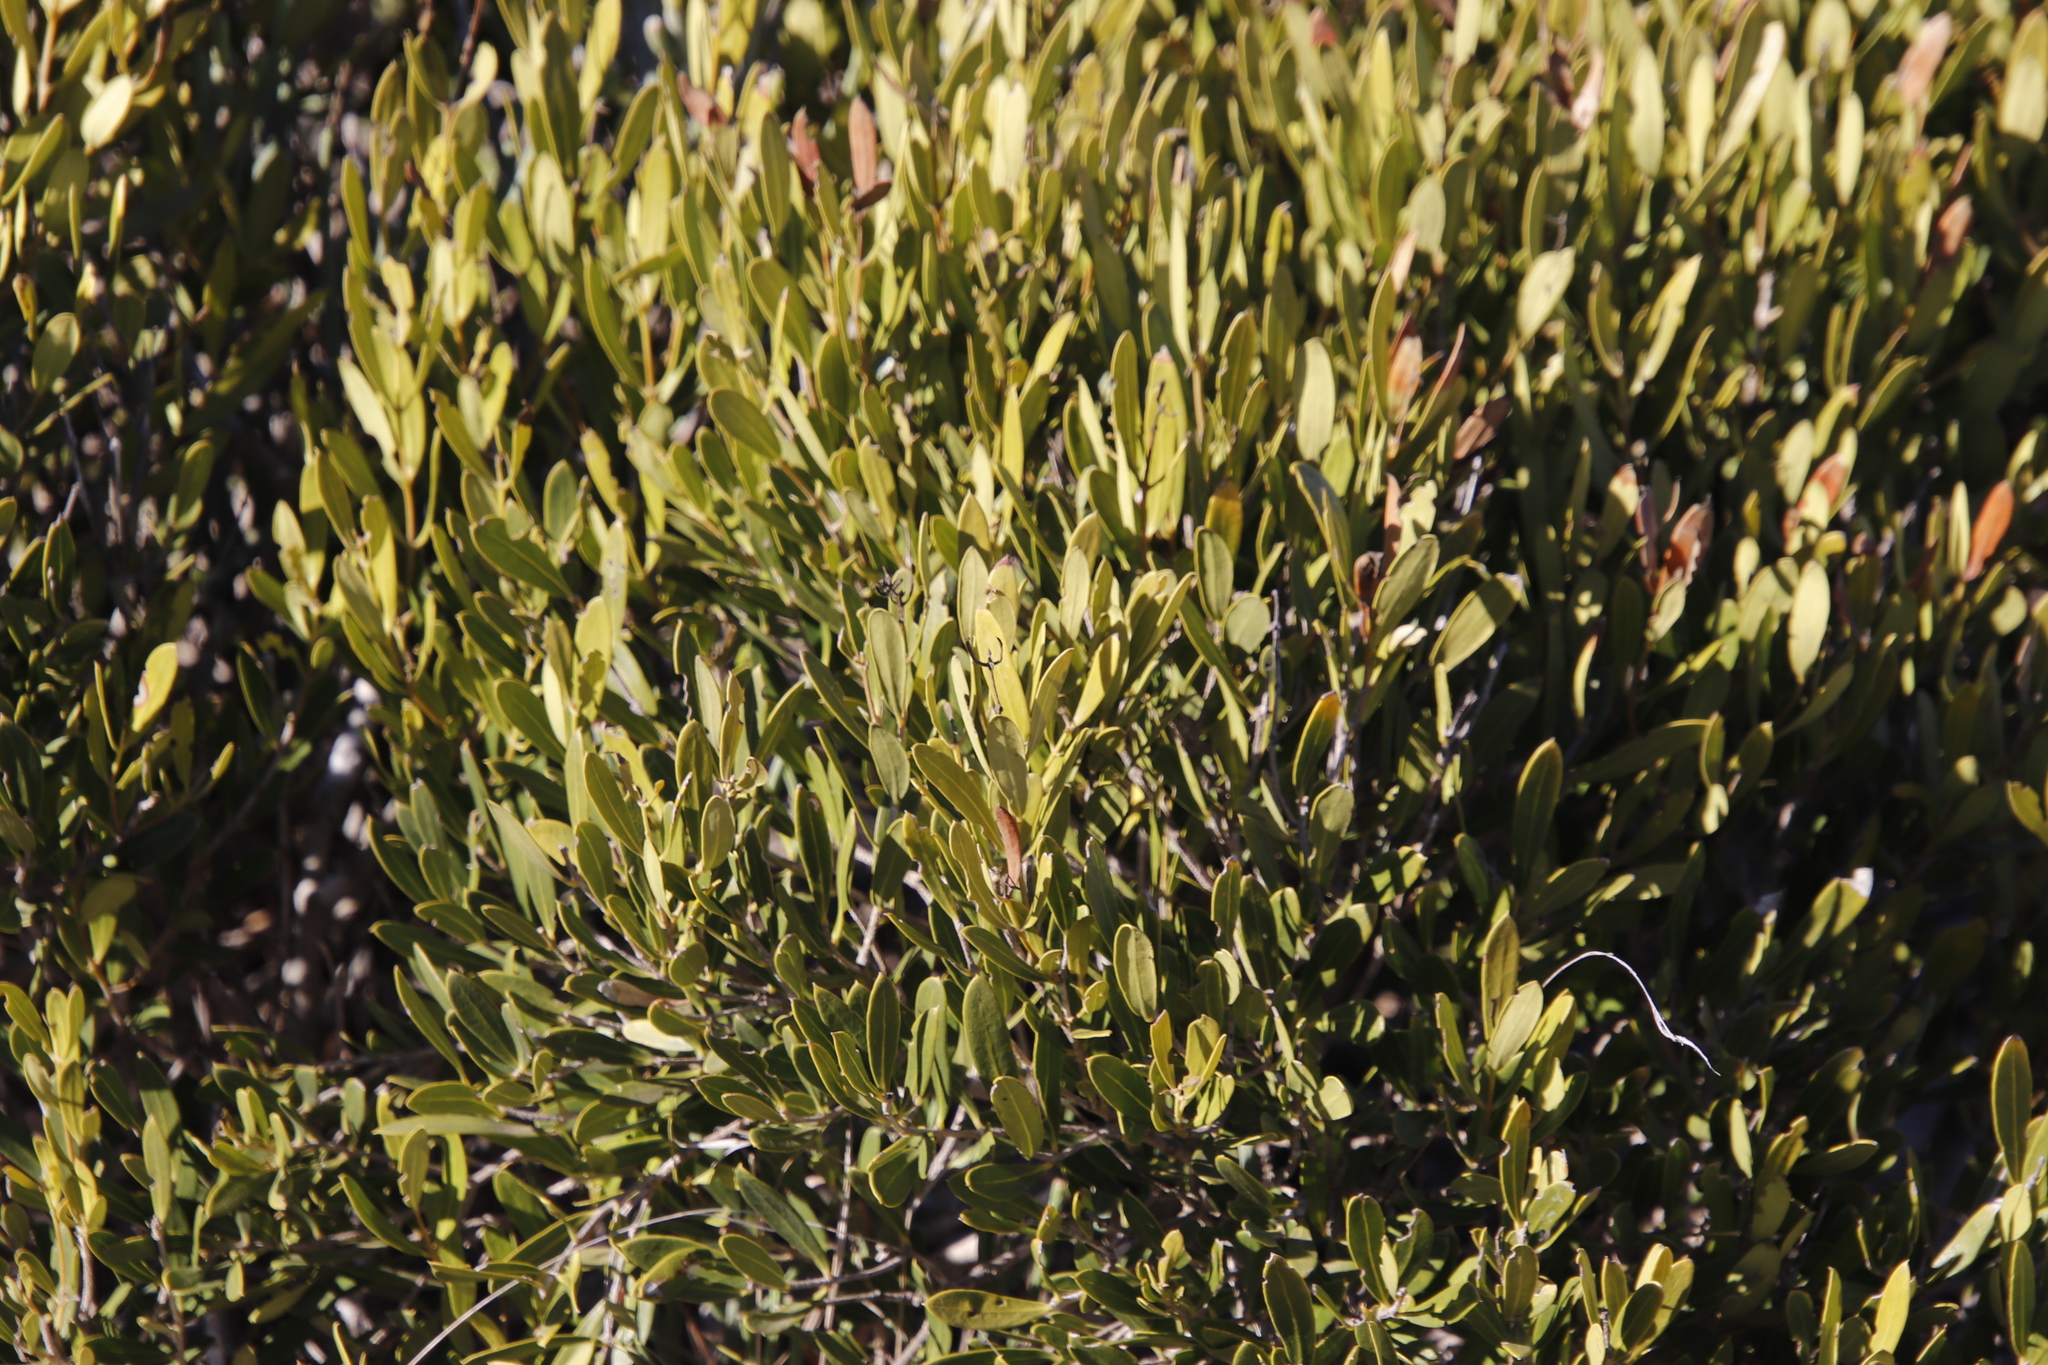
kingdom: Plantae
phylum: Tracheophyta
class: Magnoliopsida
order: Lamiales
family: Oleaceae
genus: Olea
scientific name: Olea exasperata
